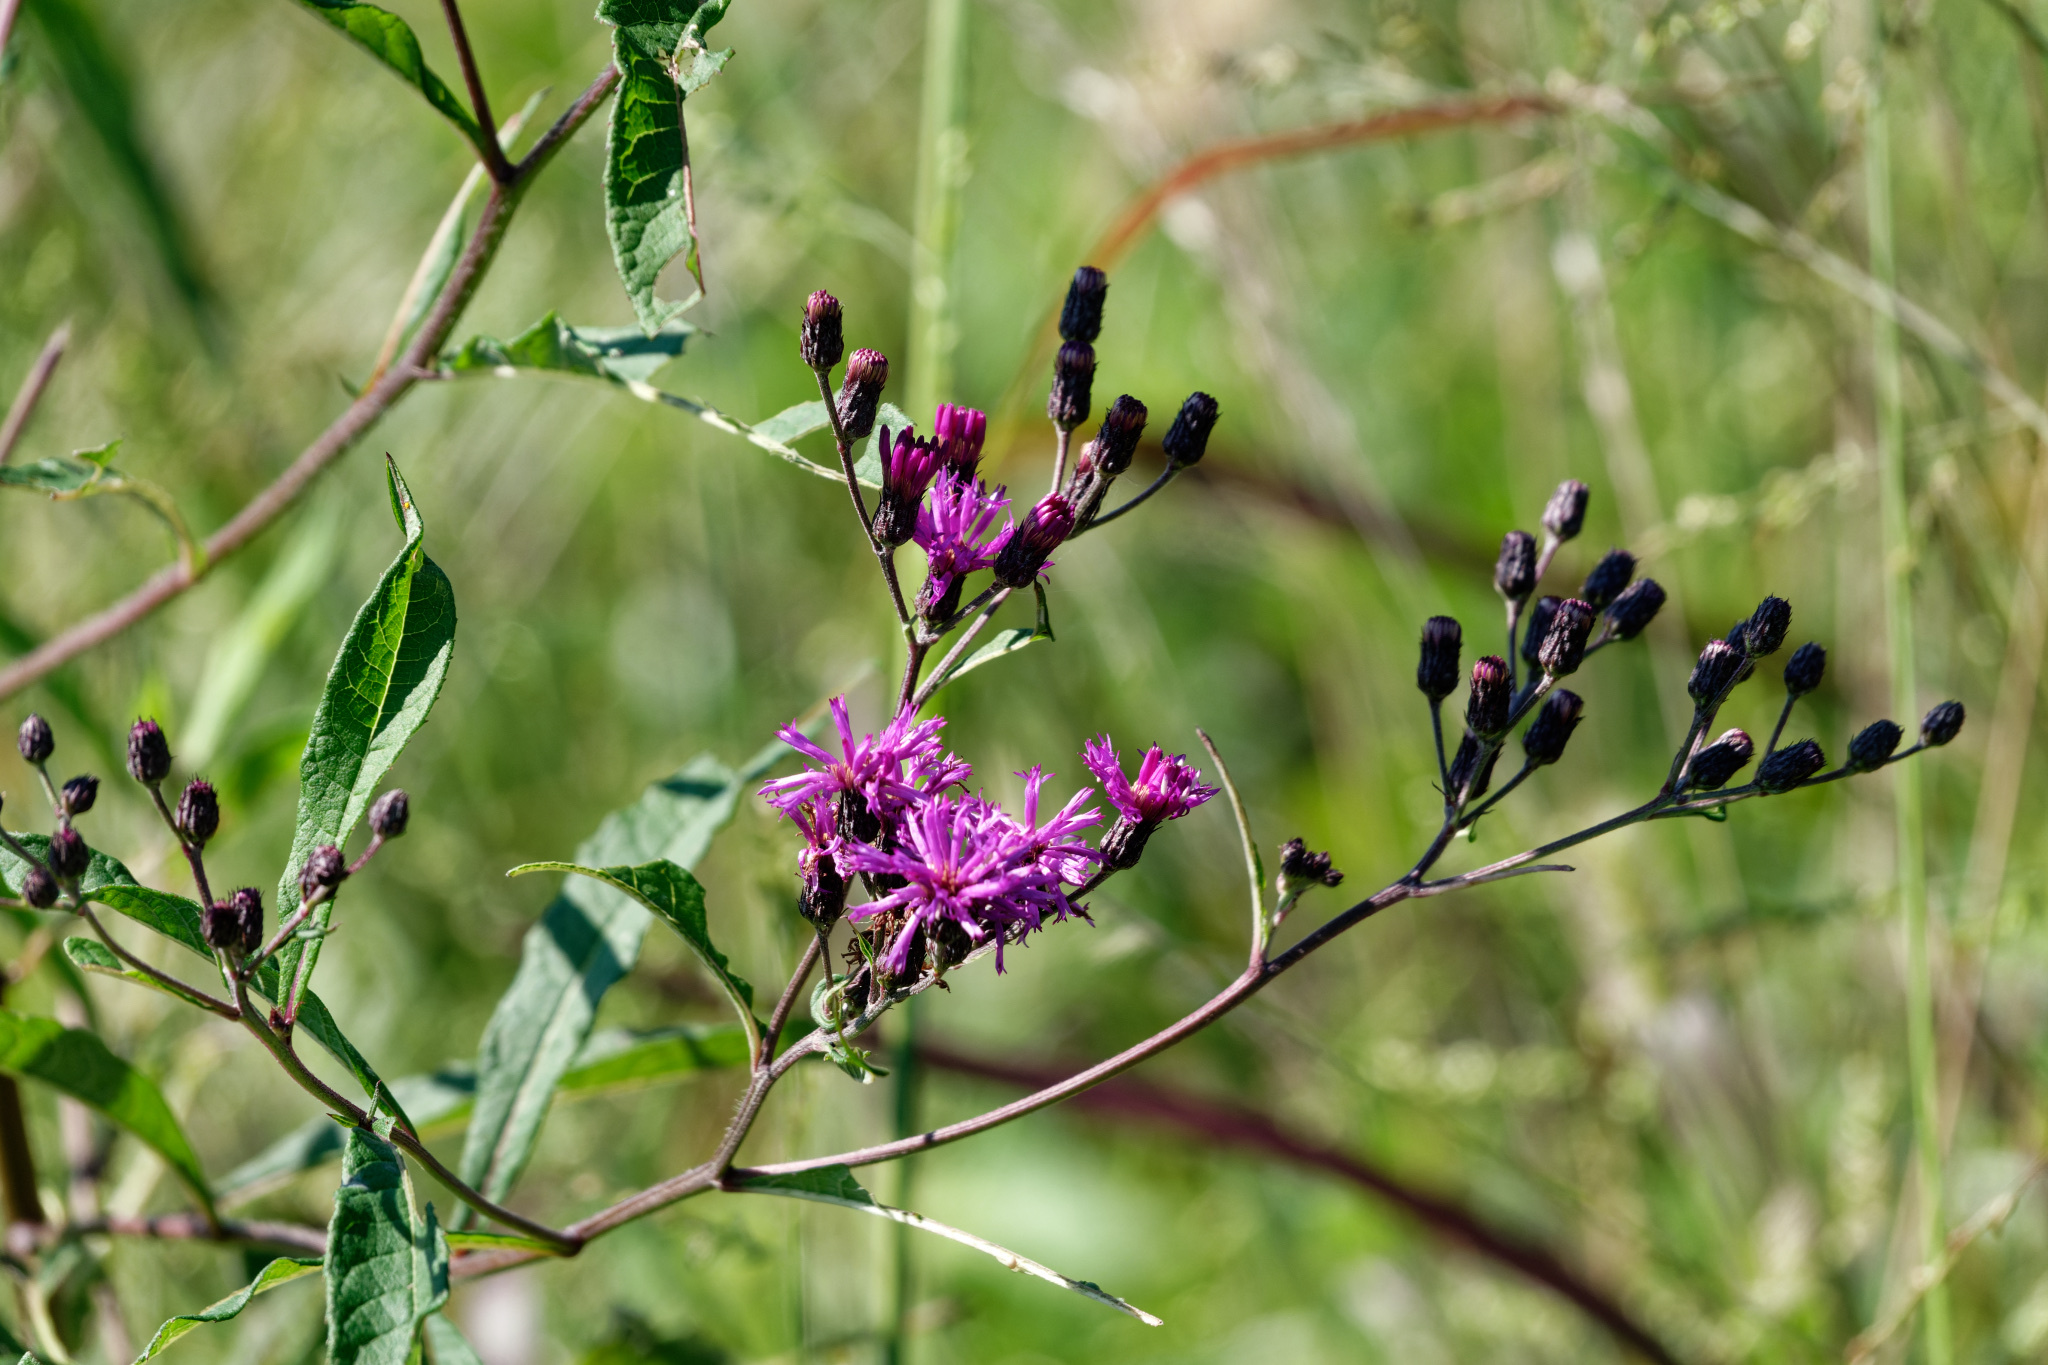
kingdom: Plantae
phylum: Tracheophyta
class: Magnoliopsida
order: Asterales
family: Asteraceae
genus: Vernonia
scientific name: Vernonia gigantea
